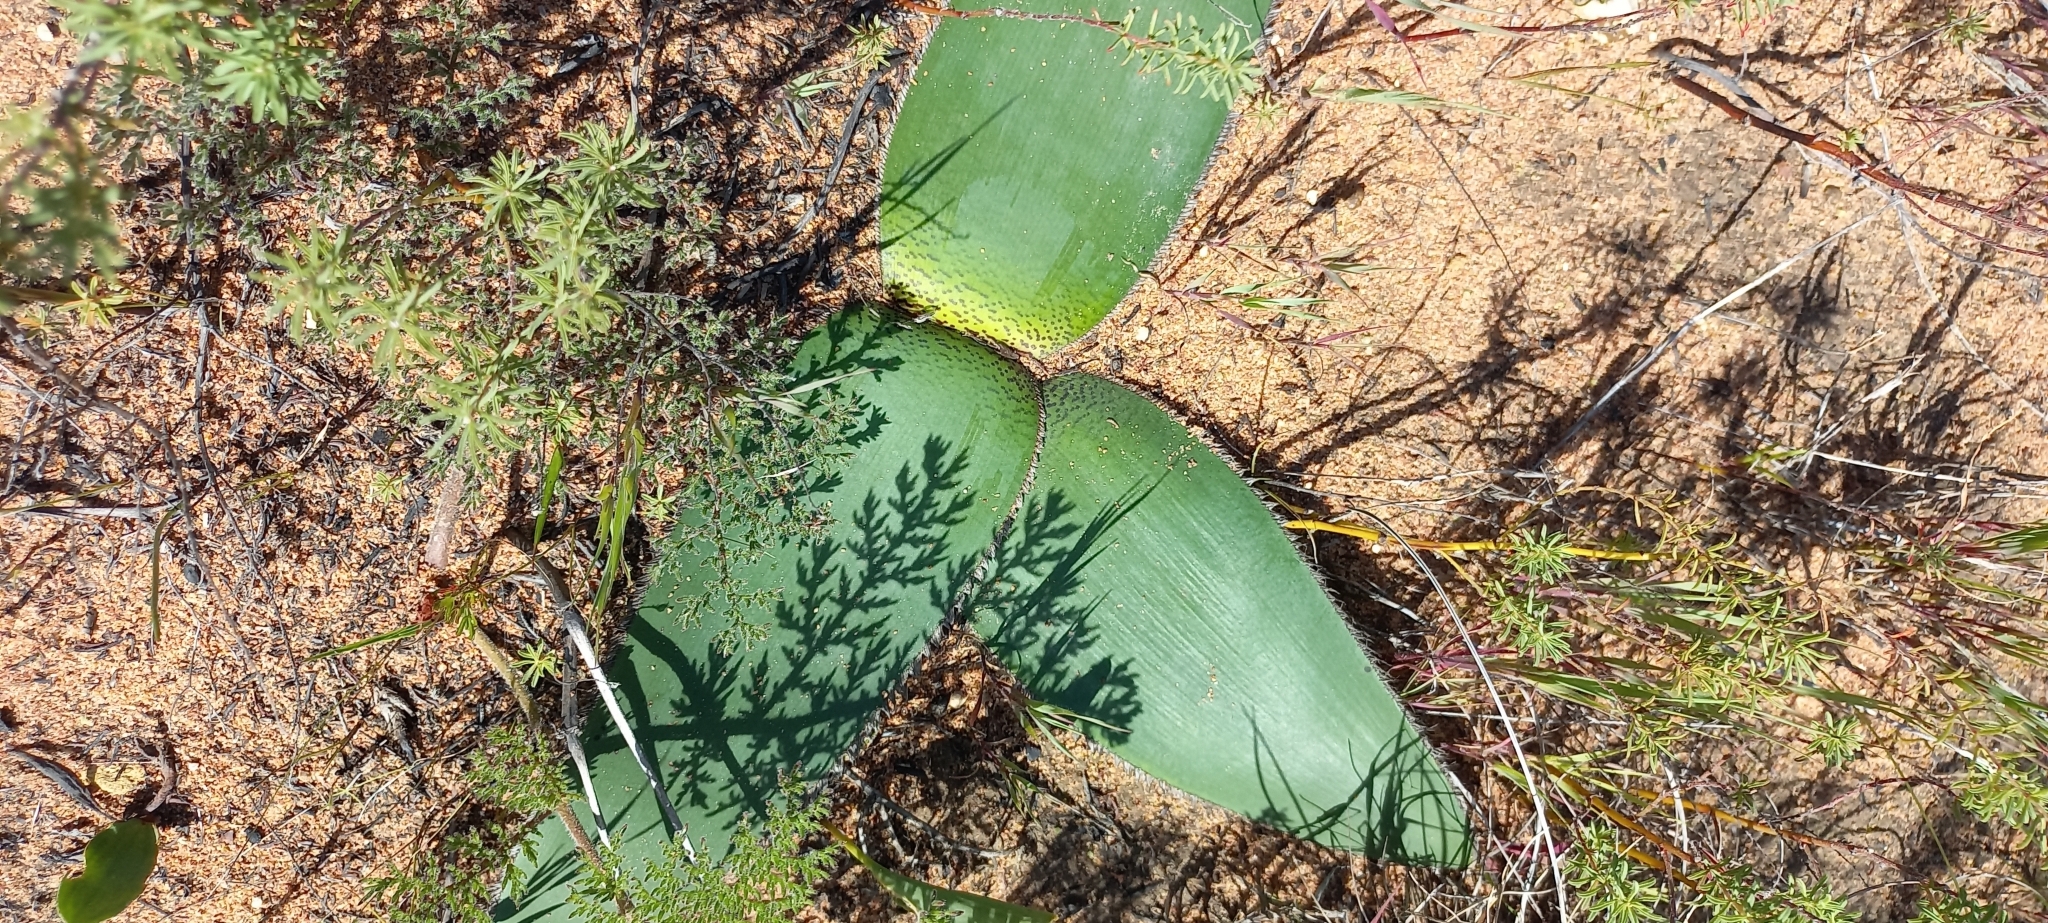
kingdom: Plantae
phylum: Tracheophyta
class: Liliopsida
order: Asparagales
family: Amaryllidaceae
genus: Crossyne
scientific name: Crossyne guttata
